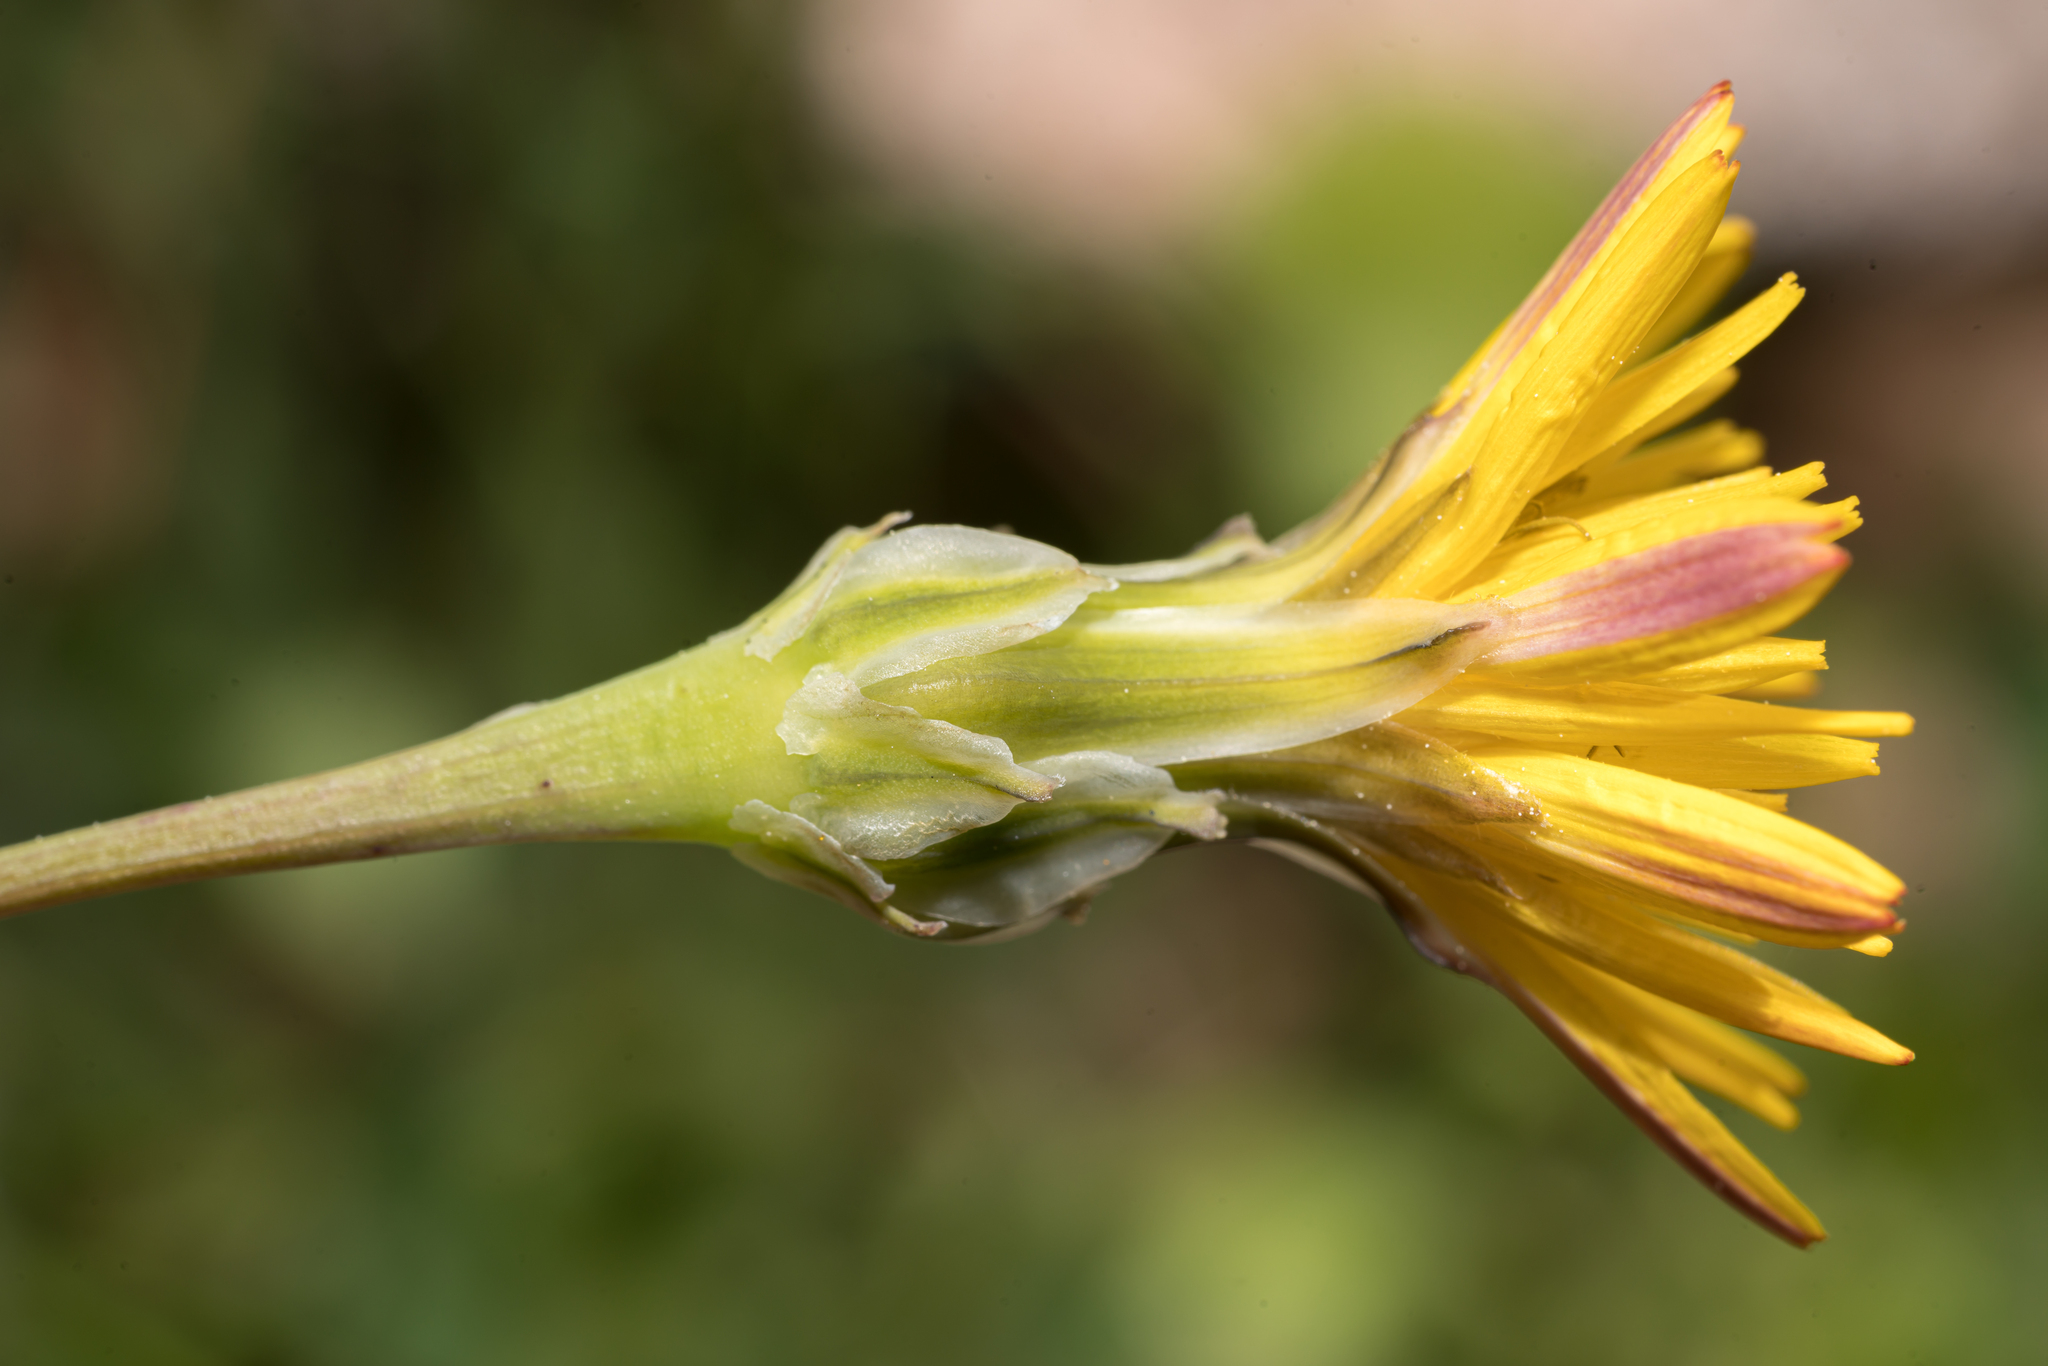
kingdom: Plantae
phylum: Tracheophyta
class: Magnoliopsida
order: Asterales
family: Asteraceae
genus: Reichardia
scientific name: Reichardia intermedia
